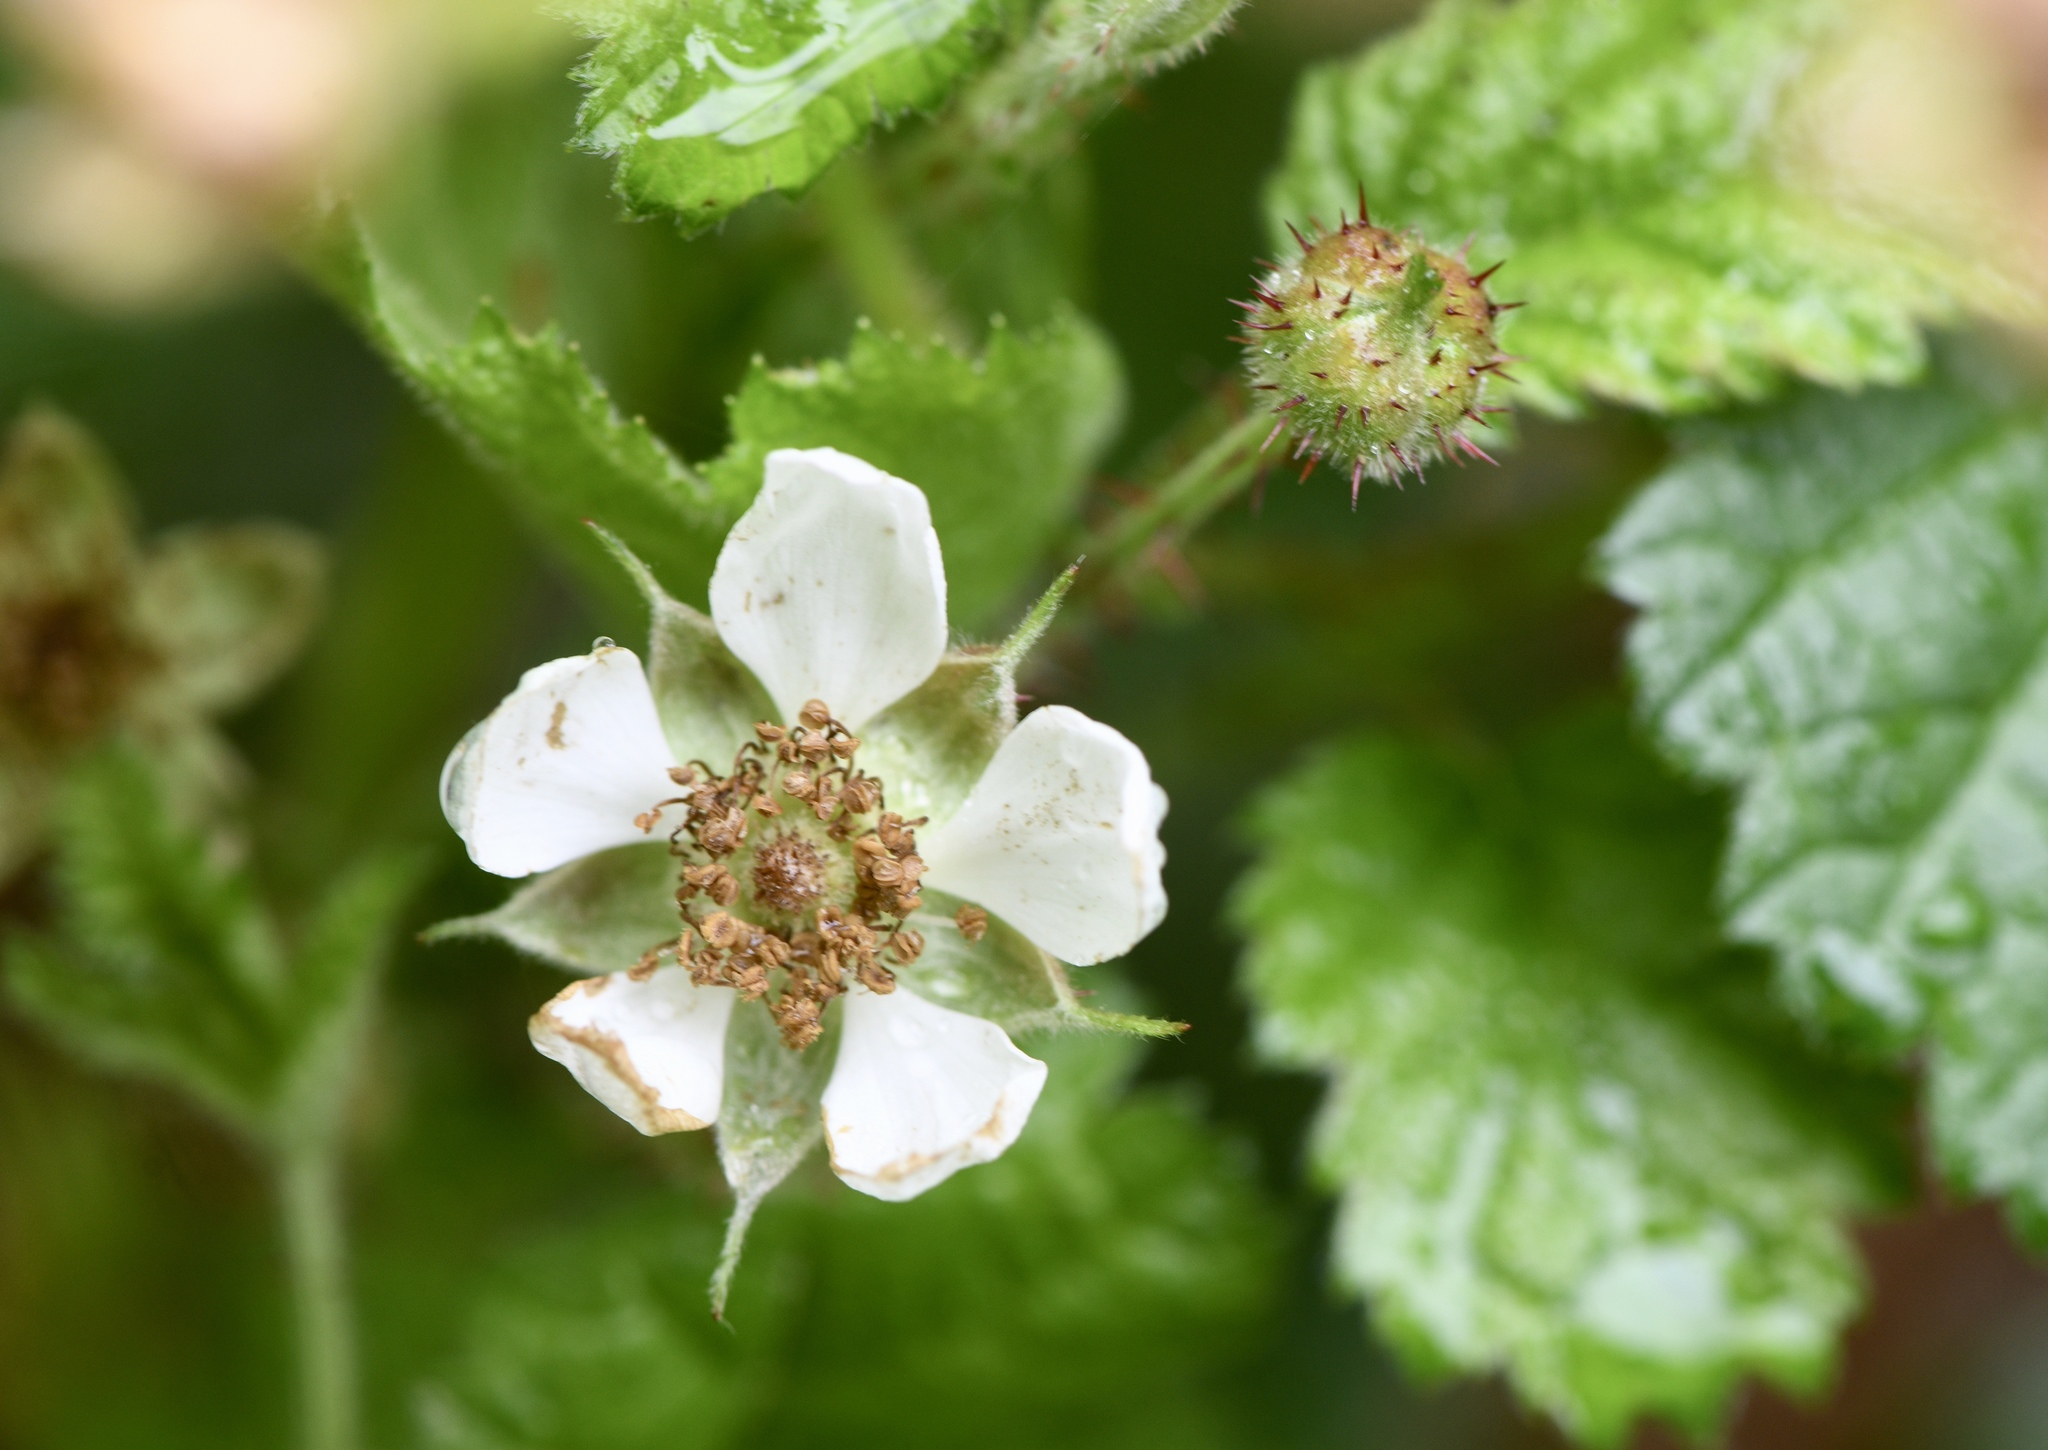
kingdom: Plantae
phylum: Tracheophyta
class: Magnoliopsida
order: Rosales
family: Rosaceae
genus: Rubus
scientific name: Rubus ursinus
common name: Pacific blackberry
